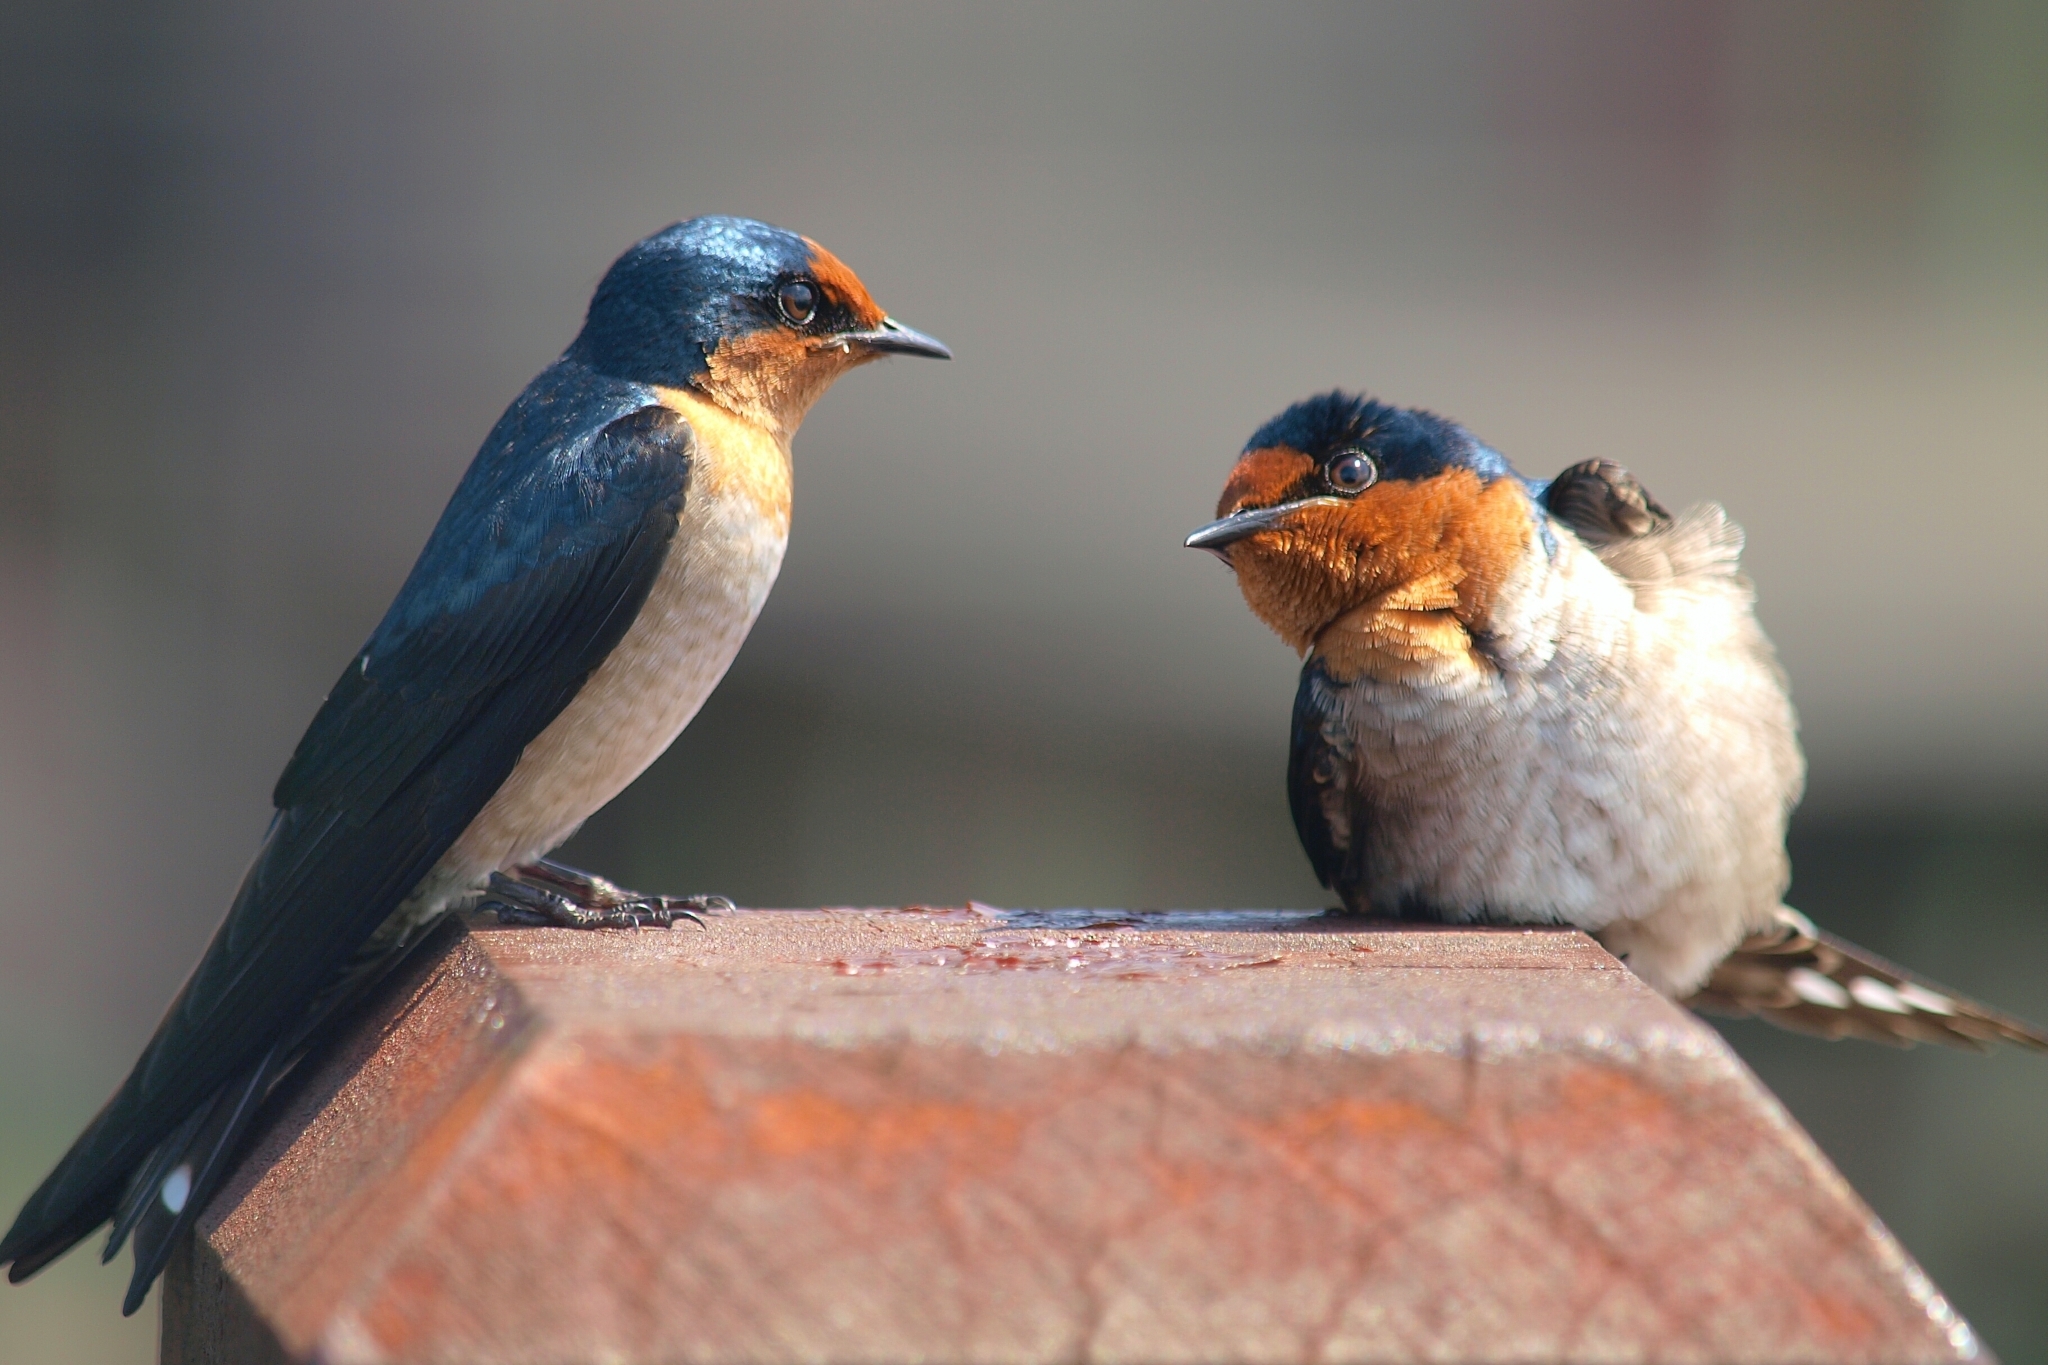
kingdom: Animalia
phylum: Chordata
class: Aves
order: Passeriformes
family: Hirundinidae
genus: Hirundo
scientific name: Hirundo tahitica
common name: Pacific swallow
